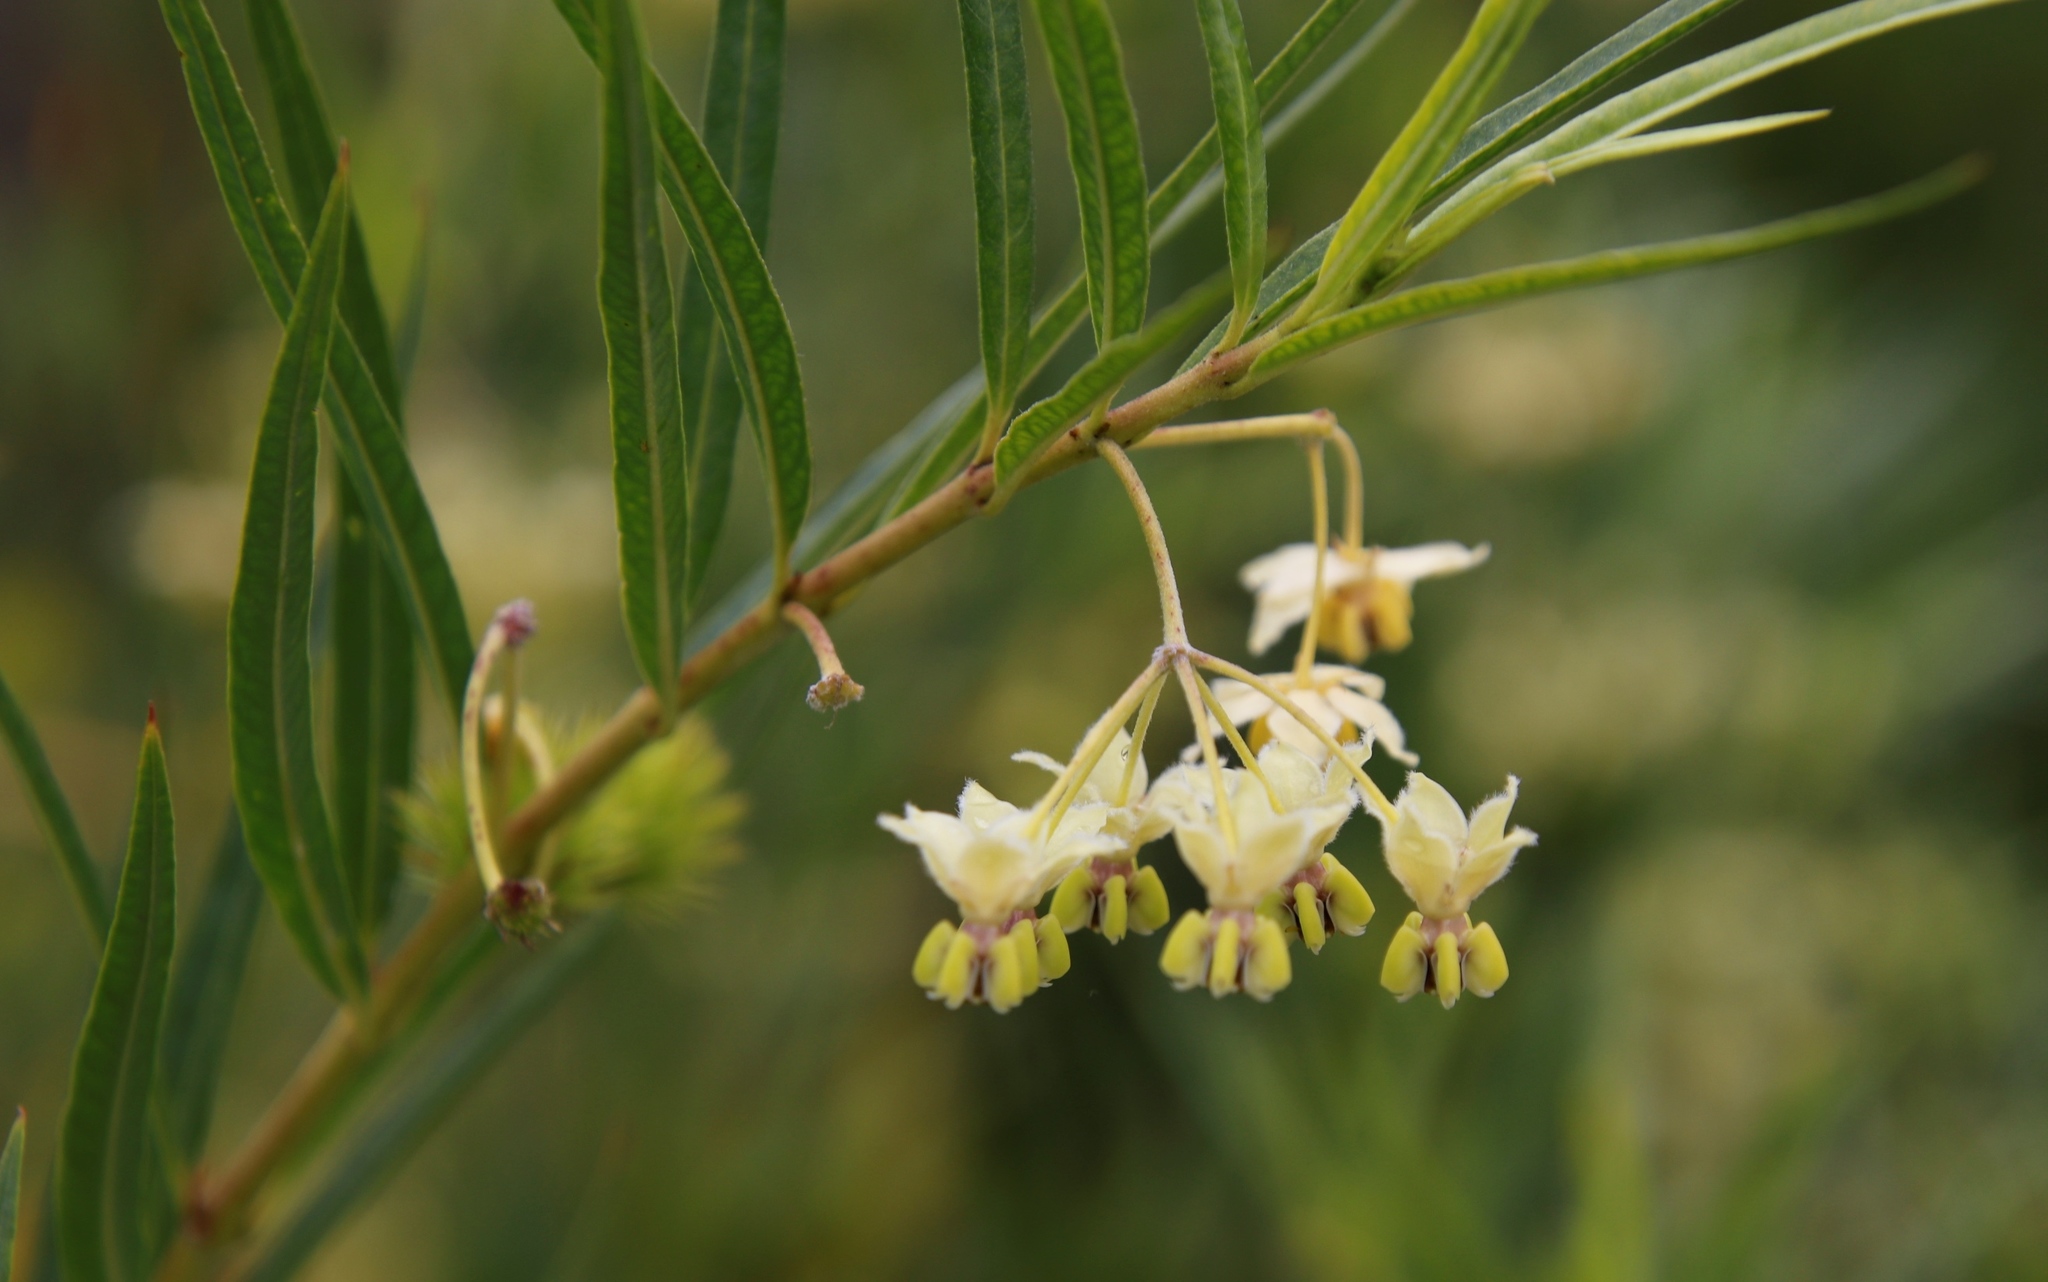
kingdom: Plantae
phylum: Tracheophyta
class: Magnoliopsida
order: Gentianales
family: Apocynaceae
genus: Gomphocarpus
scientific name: Gomphocarpus fruticosus
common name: Milkweed
